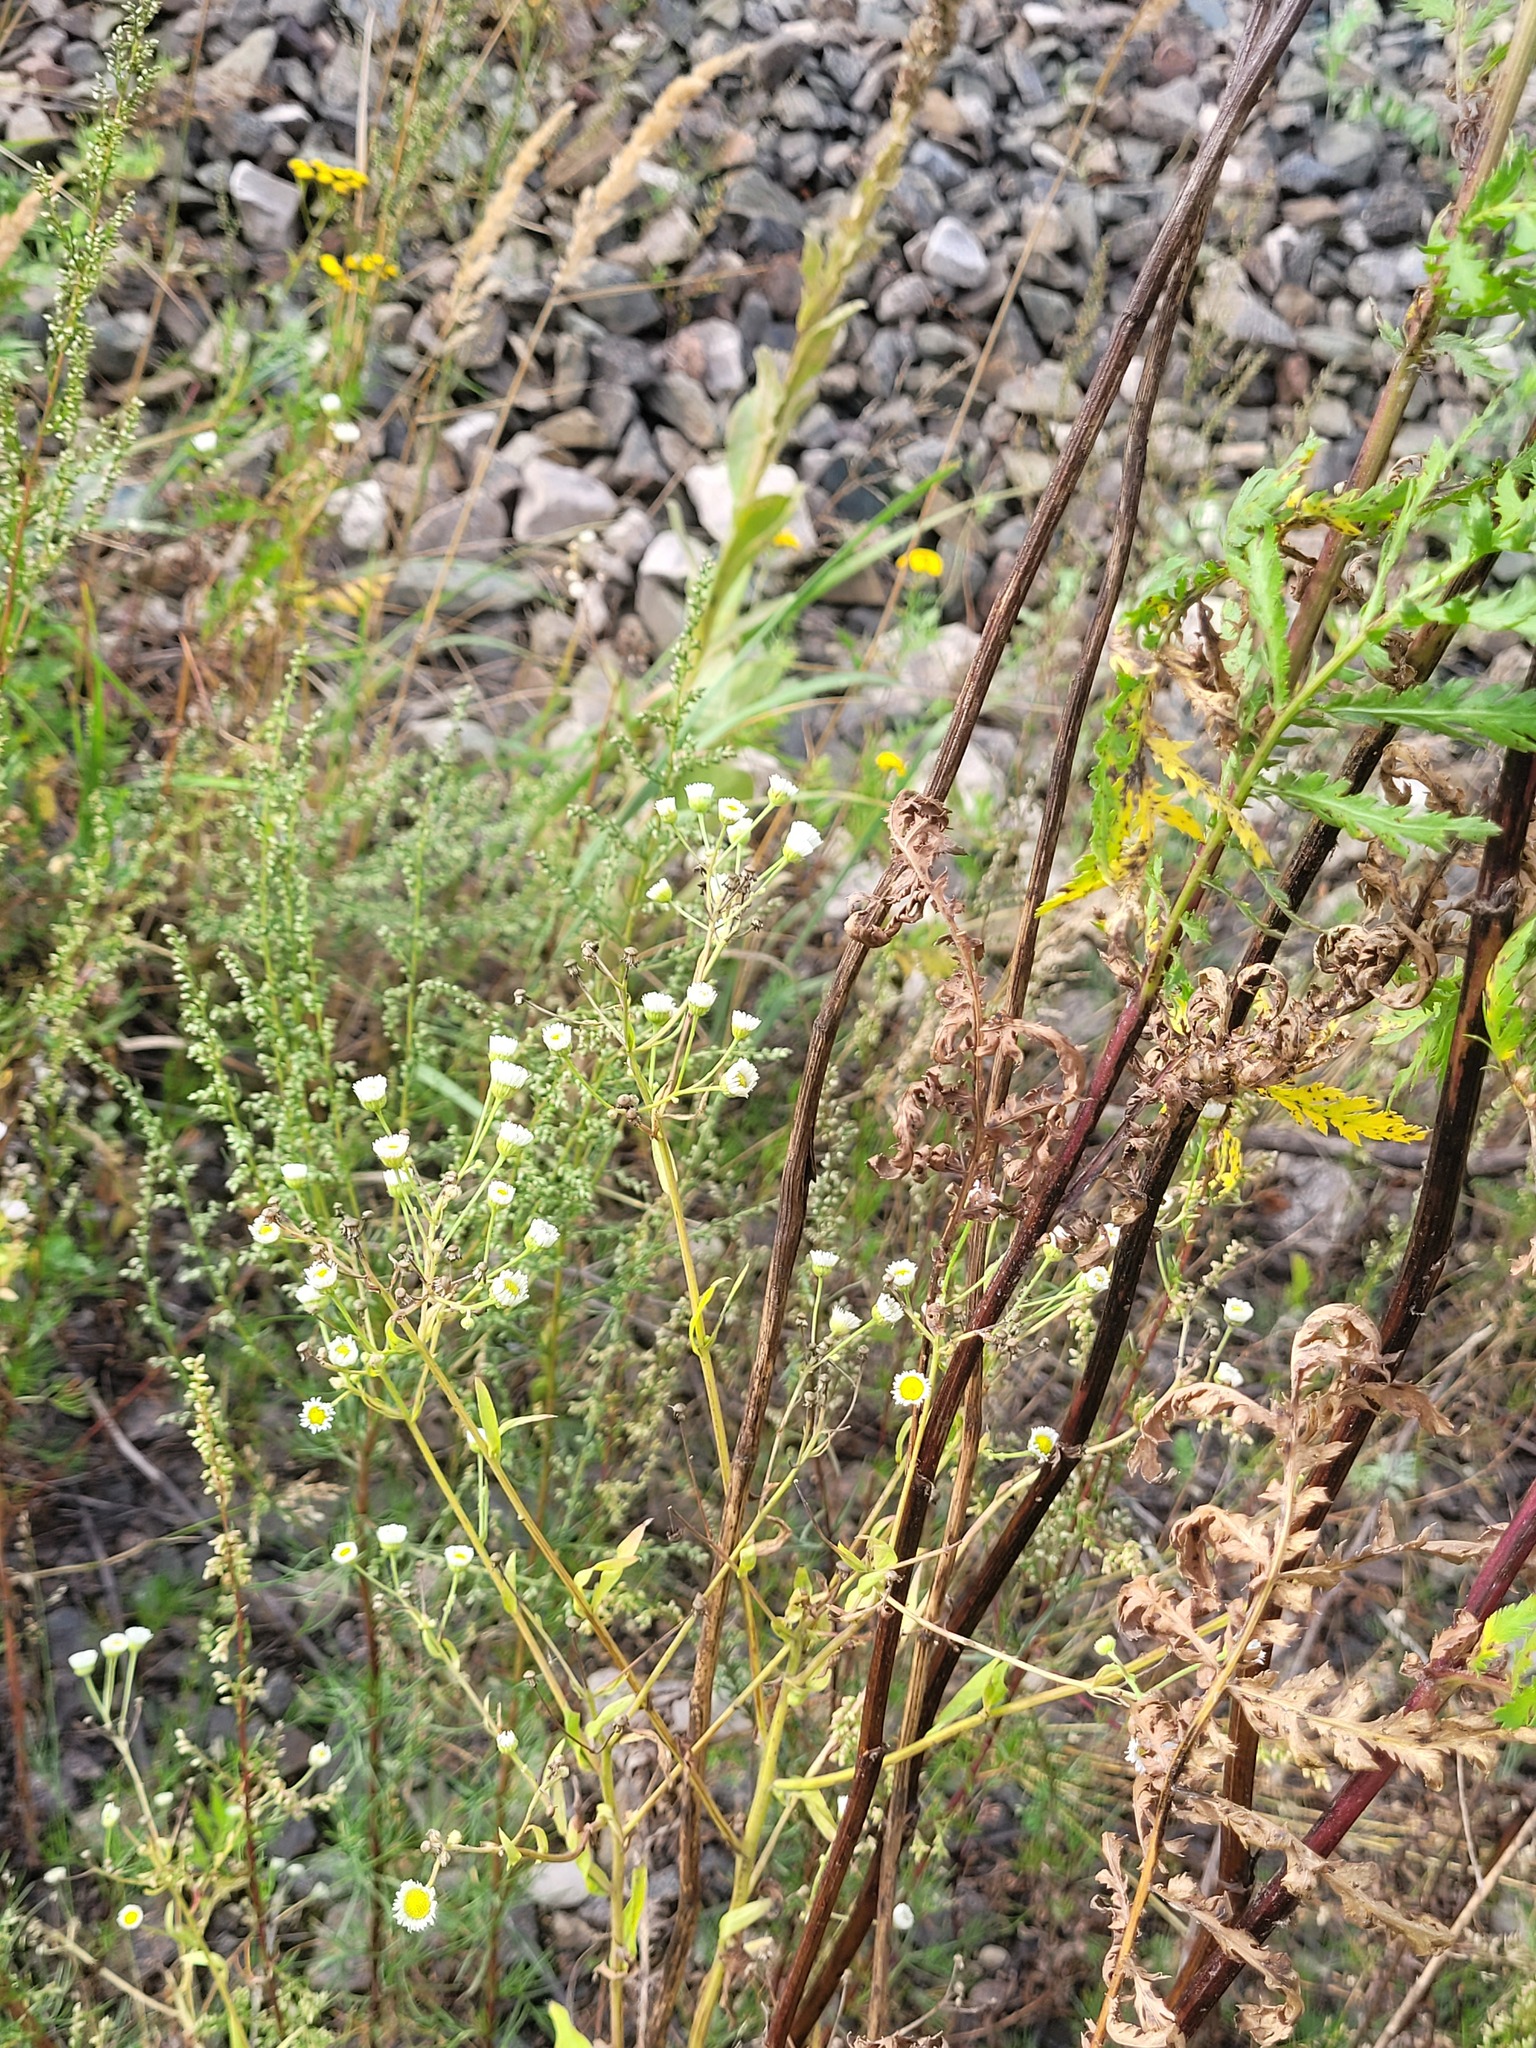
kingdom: Plantae
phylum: Tracheophyta
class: Magnoliopsida
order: Asterales
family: Asteraceae
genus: Erigeron
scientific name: Erigeron annuus
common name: Tall fleabane
